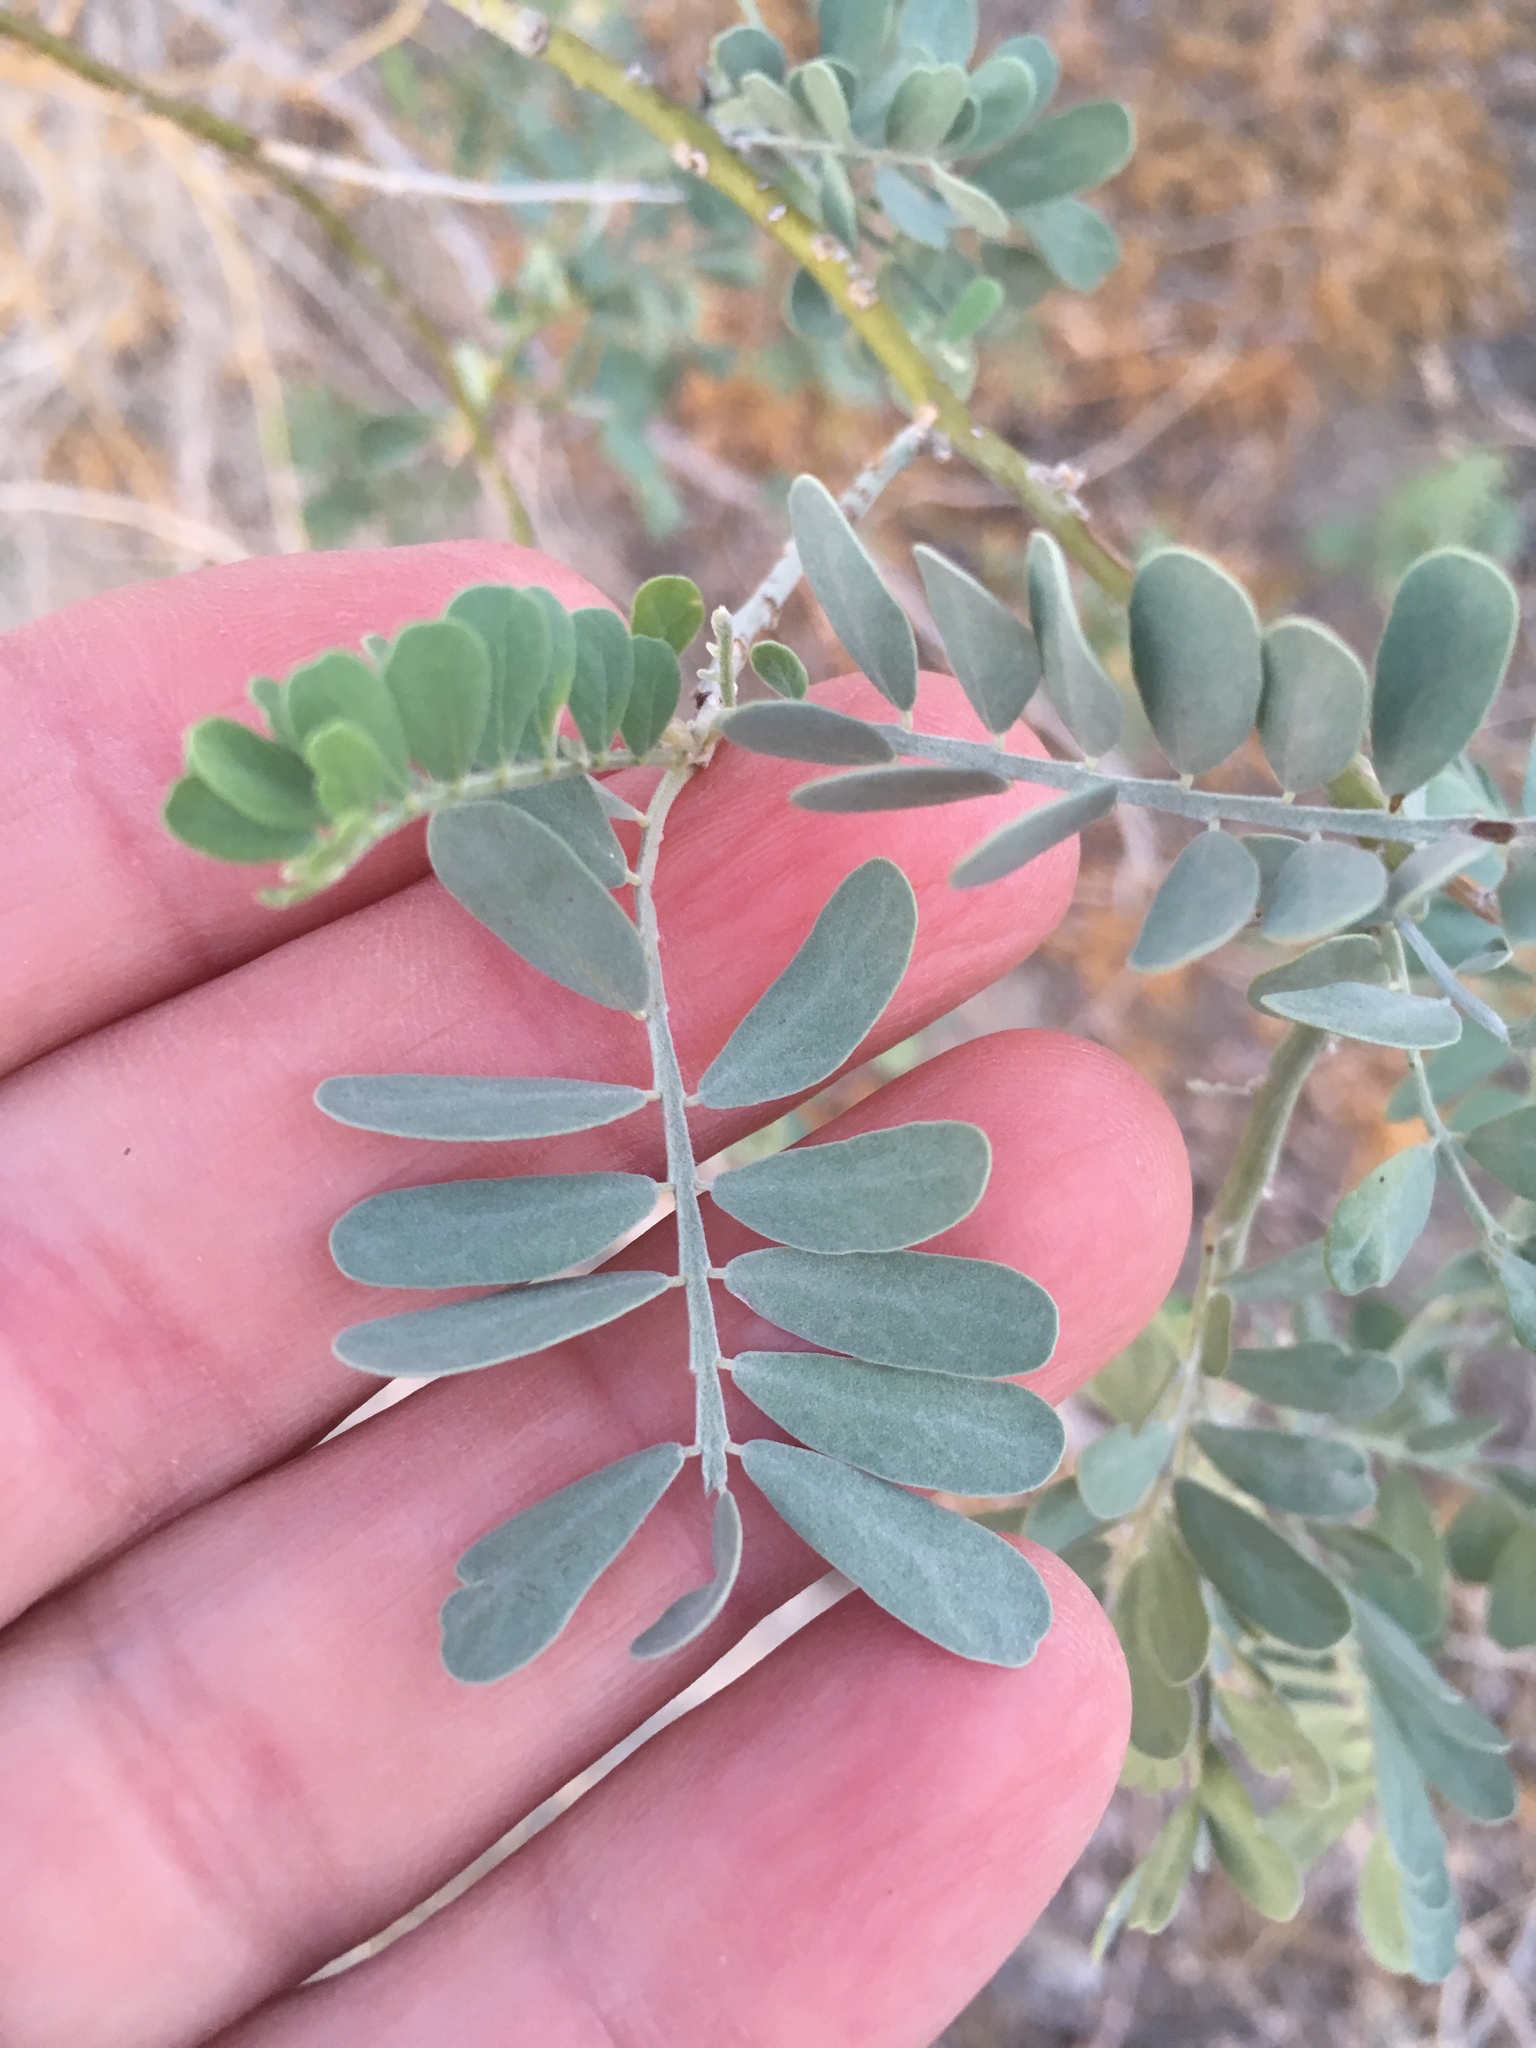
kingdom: Plantae
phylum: Tracheophyta
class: Magnoliopsida
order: Fabales
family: Fabaceae
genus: Olneya
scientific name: Olneya tesota
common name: Desert ironwood
